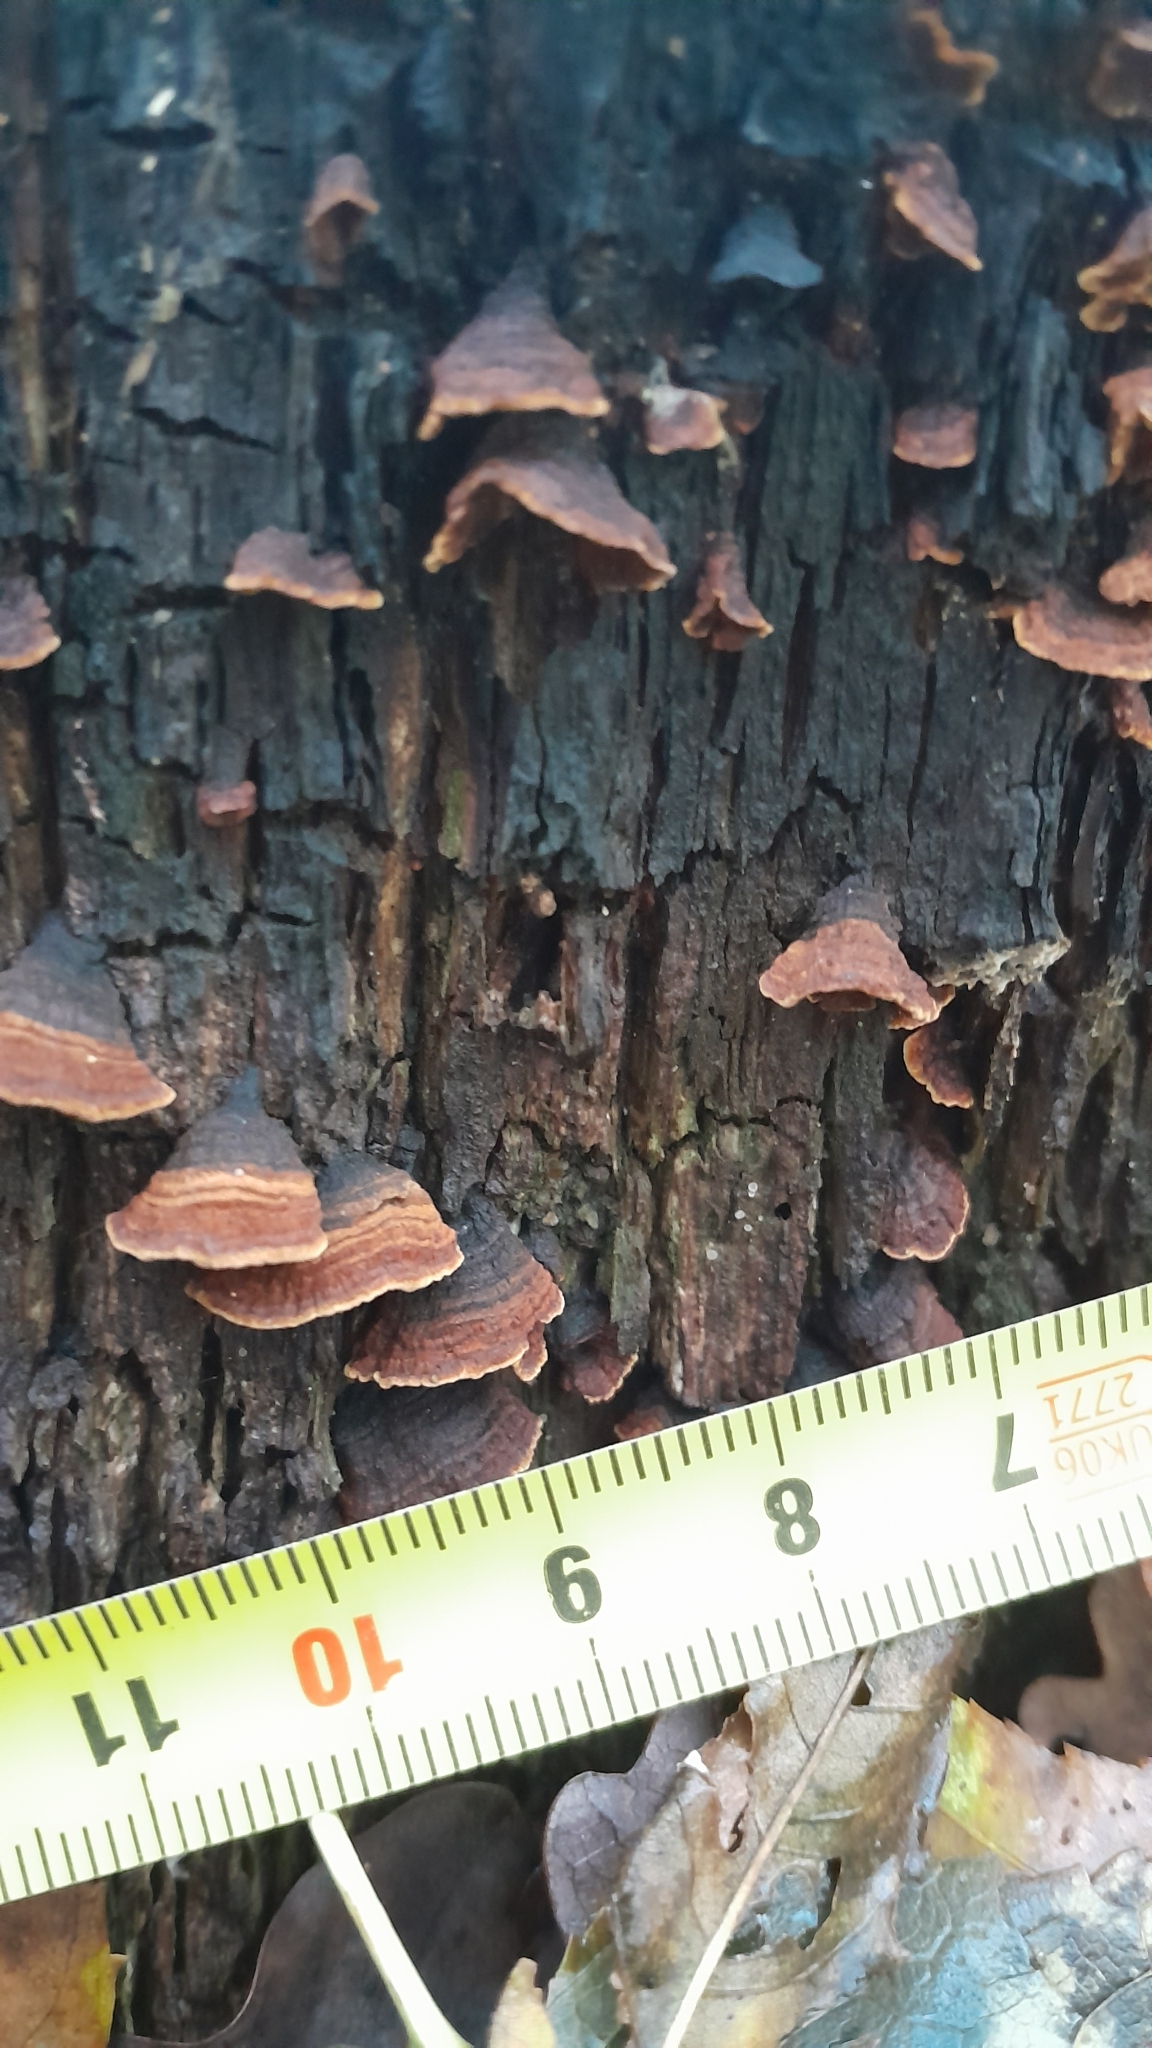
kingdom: Fungi
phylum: Basidiomycota
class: Agaricomycetes
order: Hymenochaetales
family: Hymenochaetaceae
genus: Hymenochaete
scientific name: Hymenochaete rubiginosa
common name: Oak curtain crust
